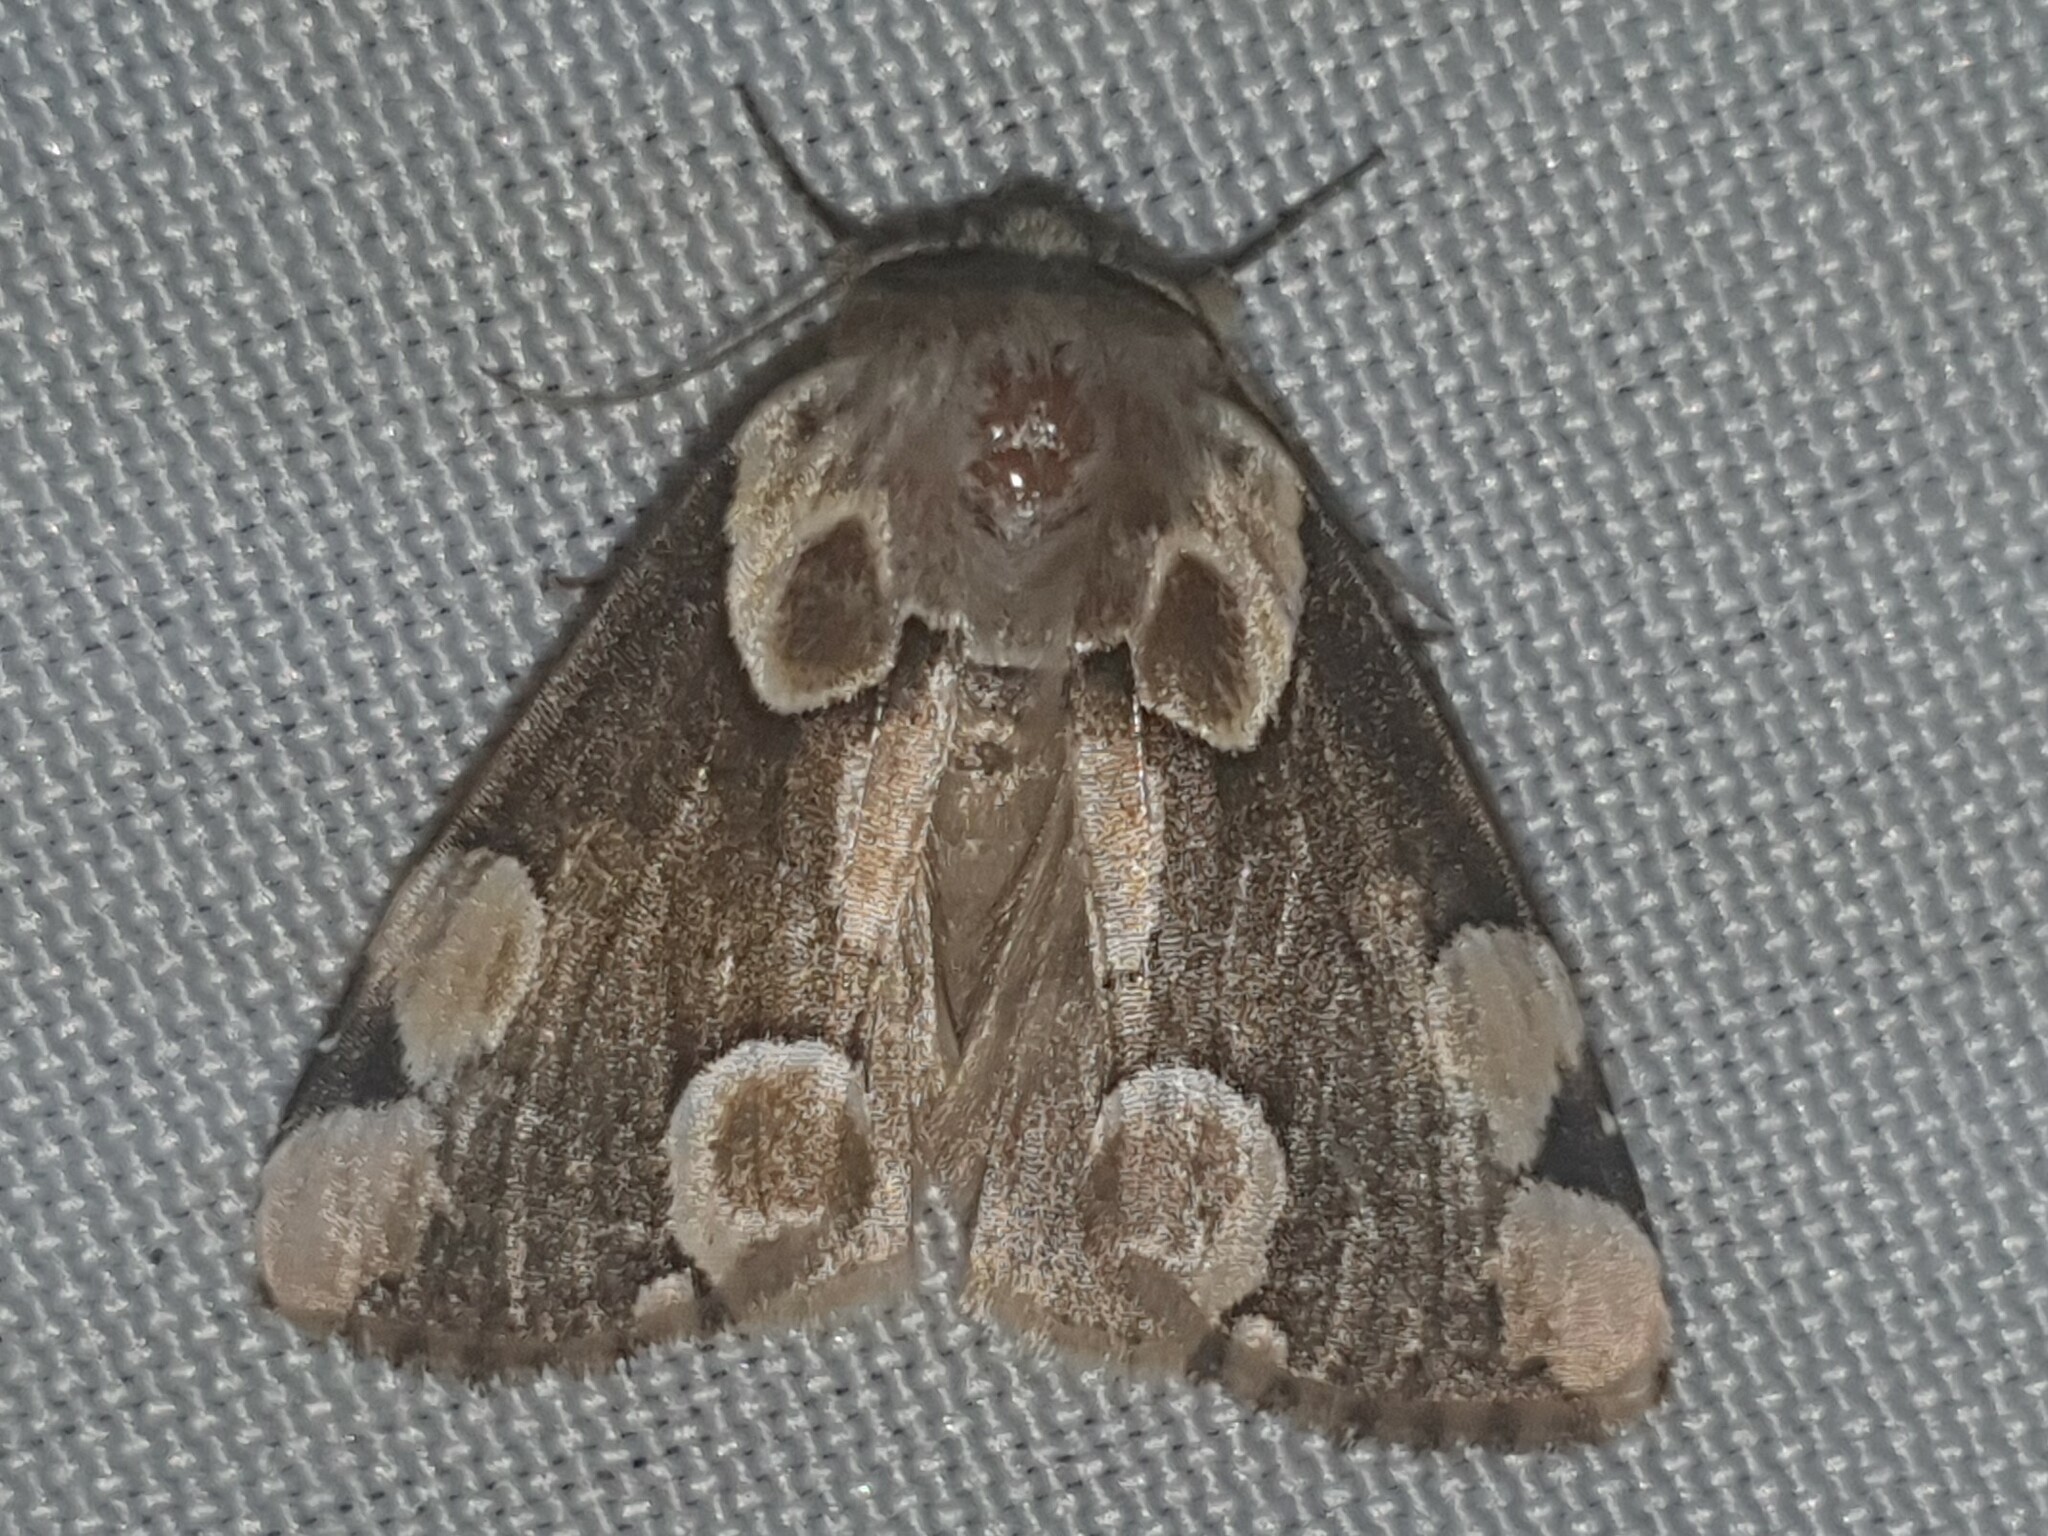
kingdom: Animalia
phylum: Arthropoda
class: Insecta
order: Lepidoptera
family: Drepanidae
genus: Thyatira
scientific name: Thyatira batis
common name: Peach blossom
